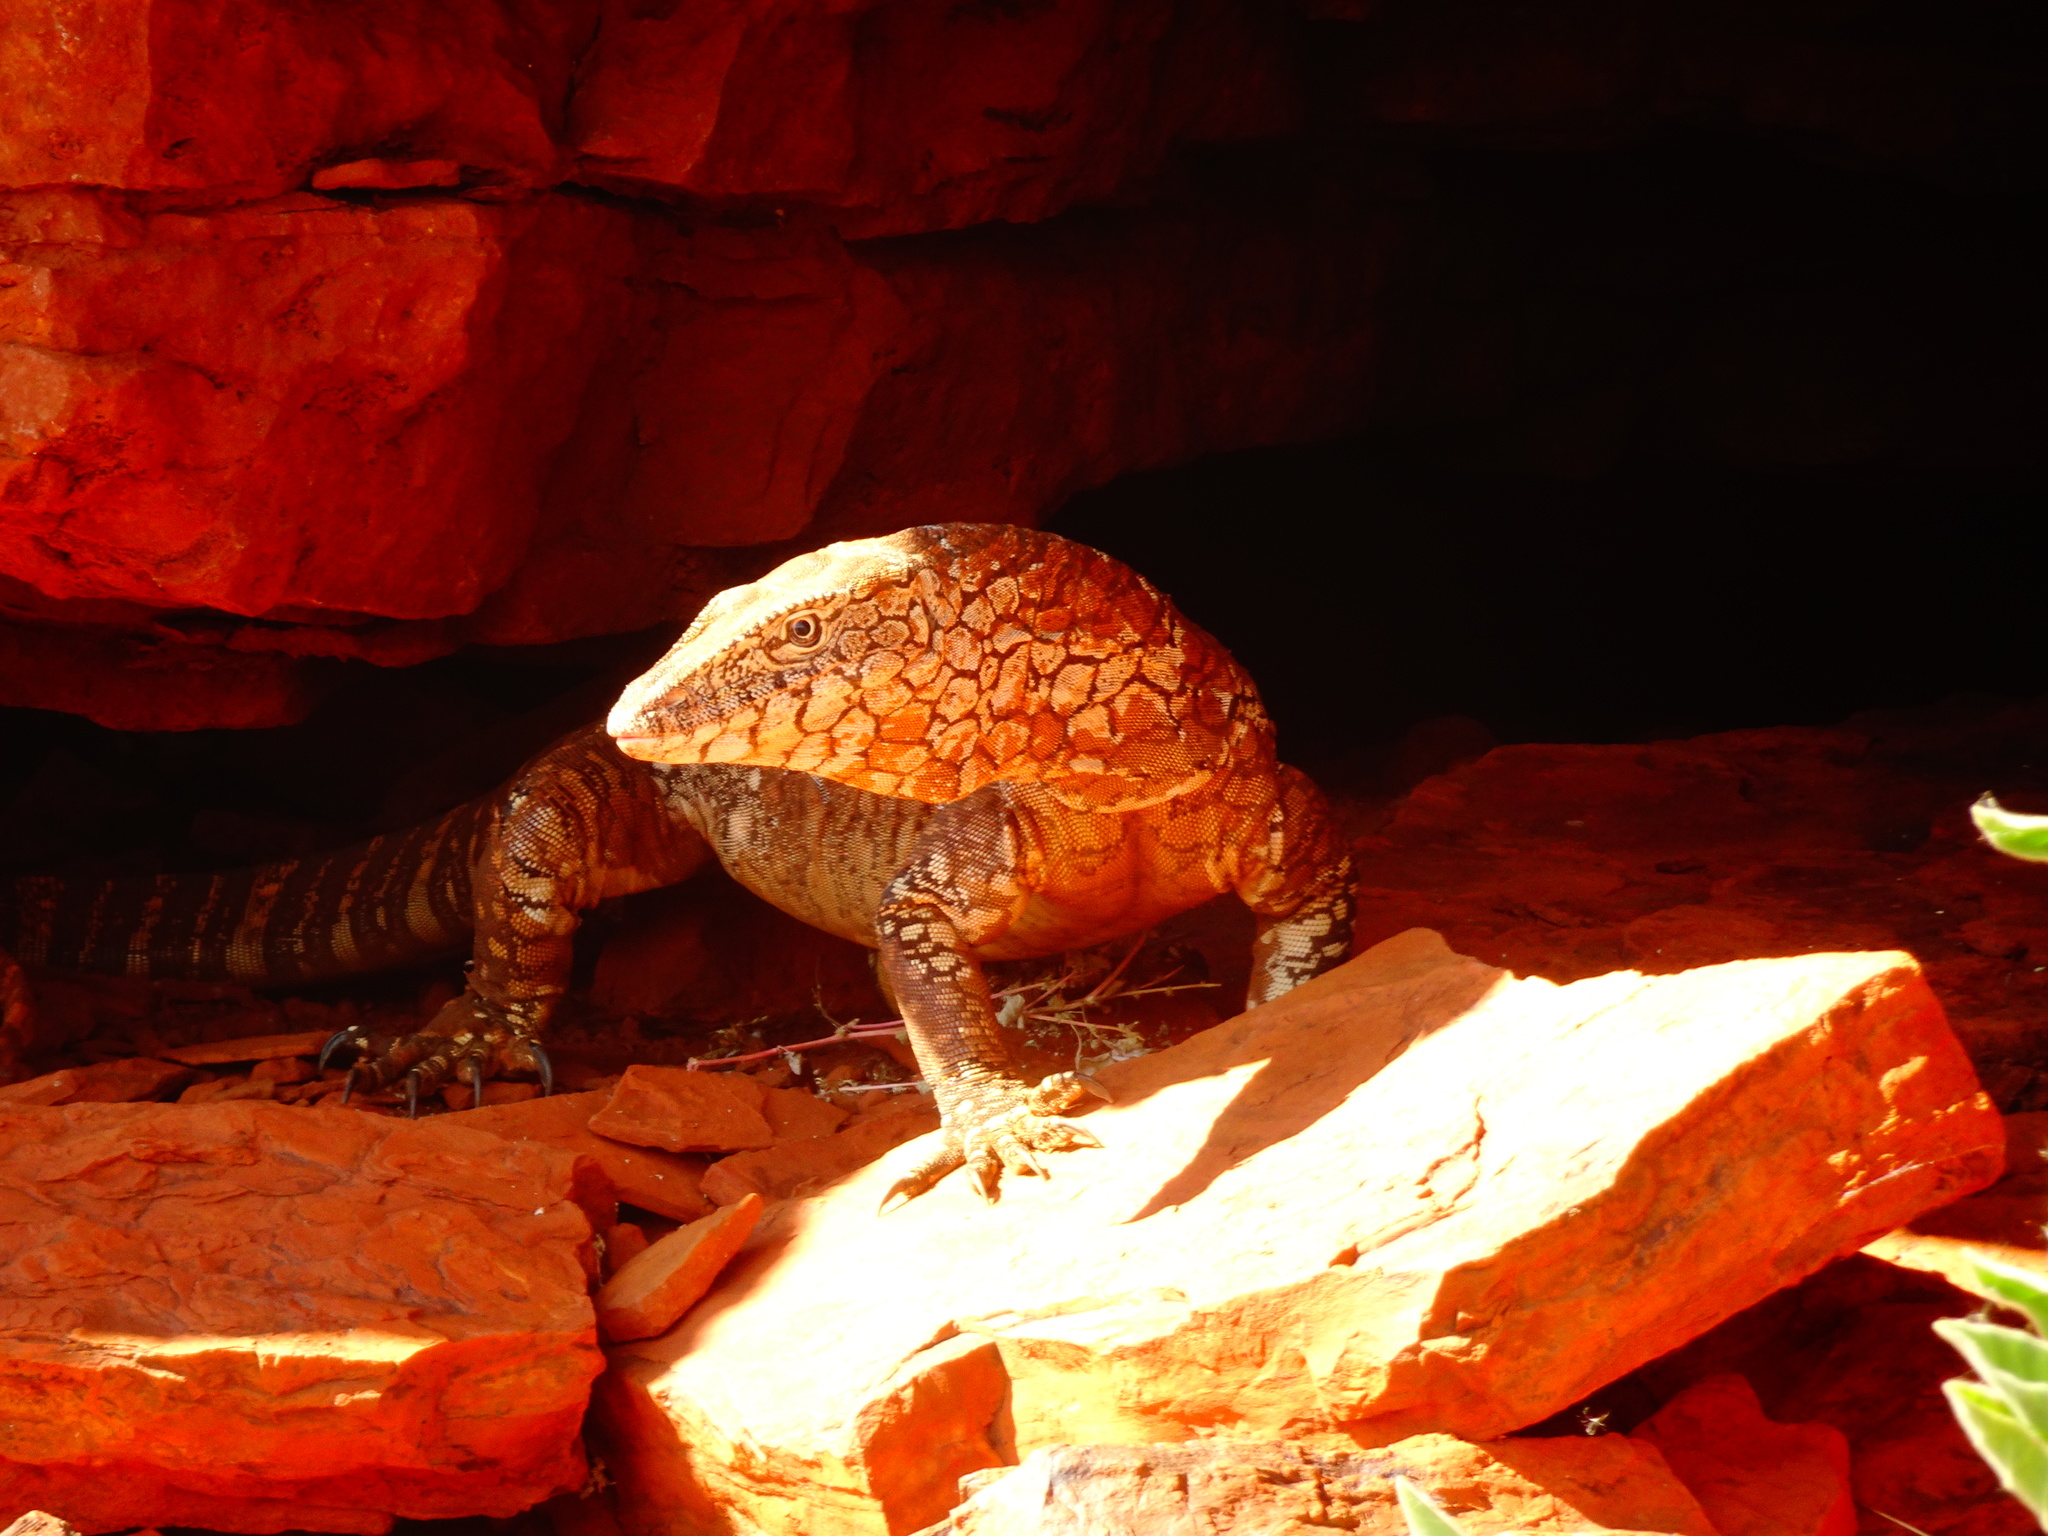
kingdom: Animalia
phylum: Chordata
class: Squamata
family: Varanidae
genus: Varanus
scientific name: Varanus giganteus
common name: Perentie
